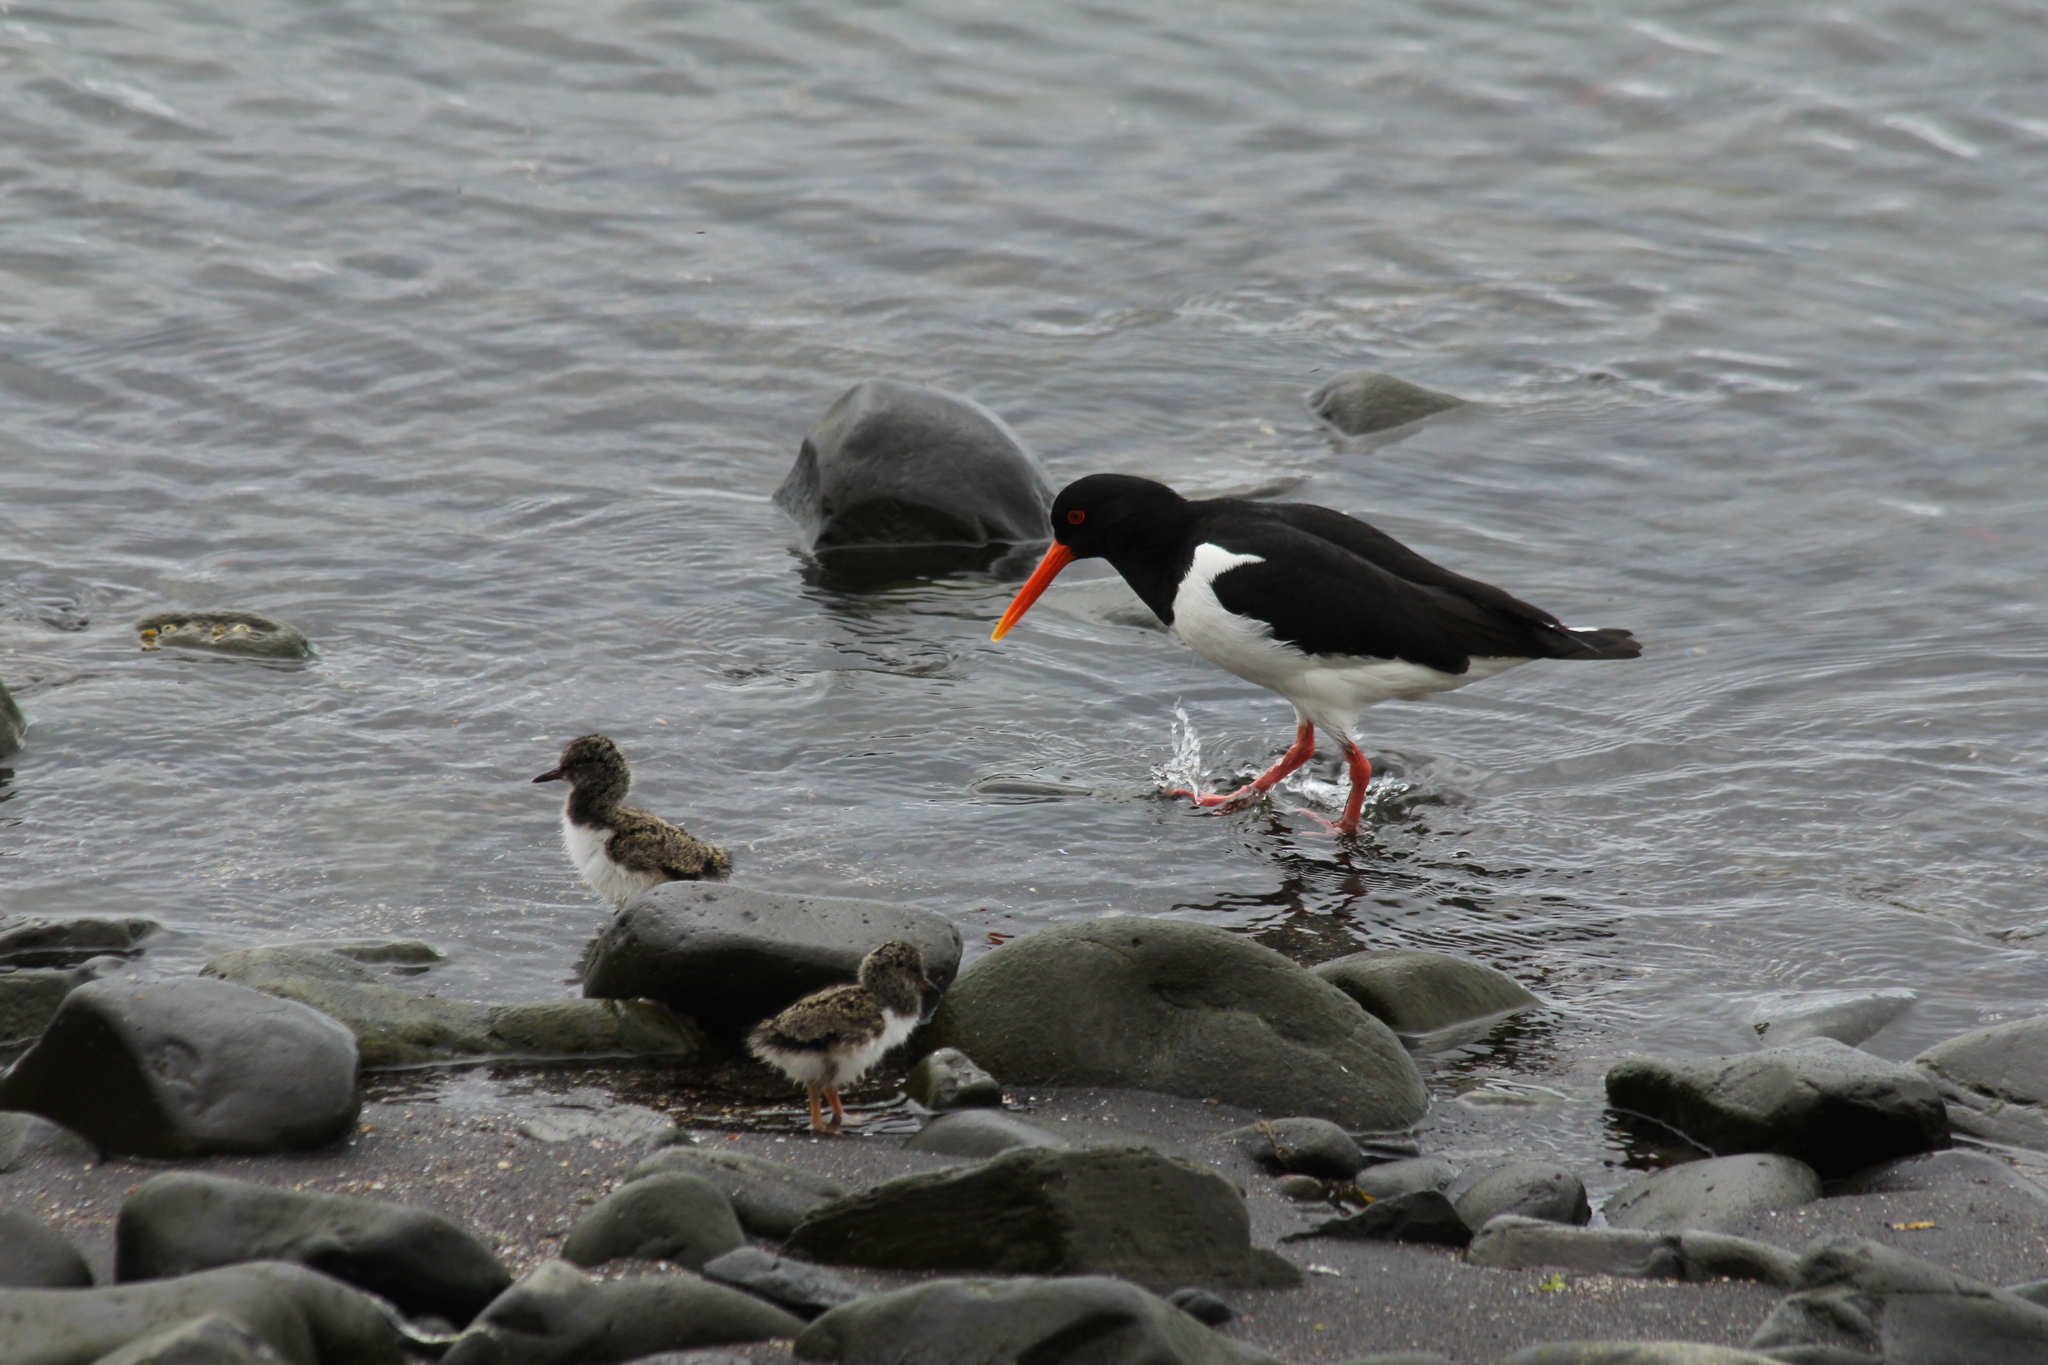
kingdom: Animalia
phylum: Chordata
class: Aves
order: Charadriiformes
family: Haematopodidae
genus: Haematopus
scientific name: Haematopus ostralegus
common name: Eurasian oystercatcher
